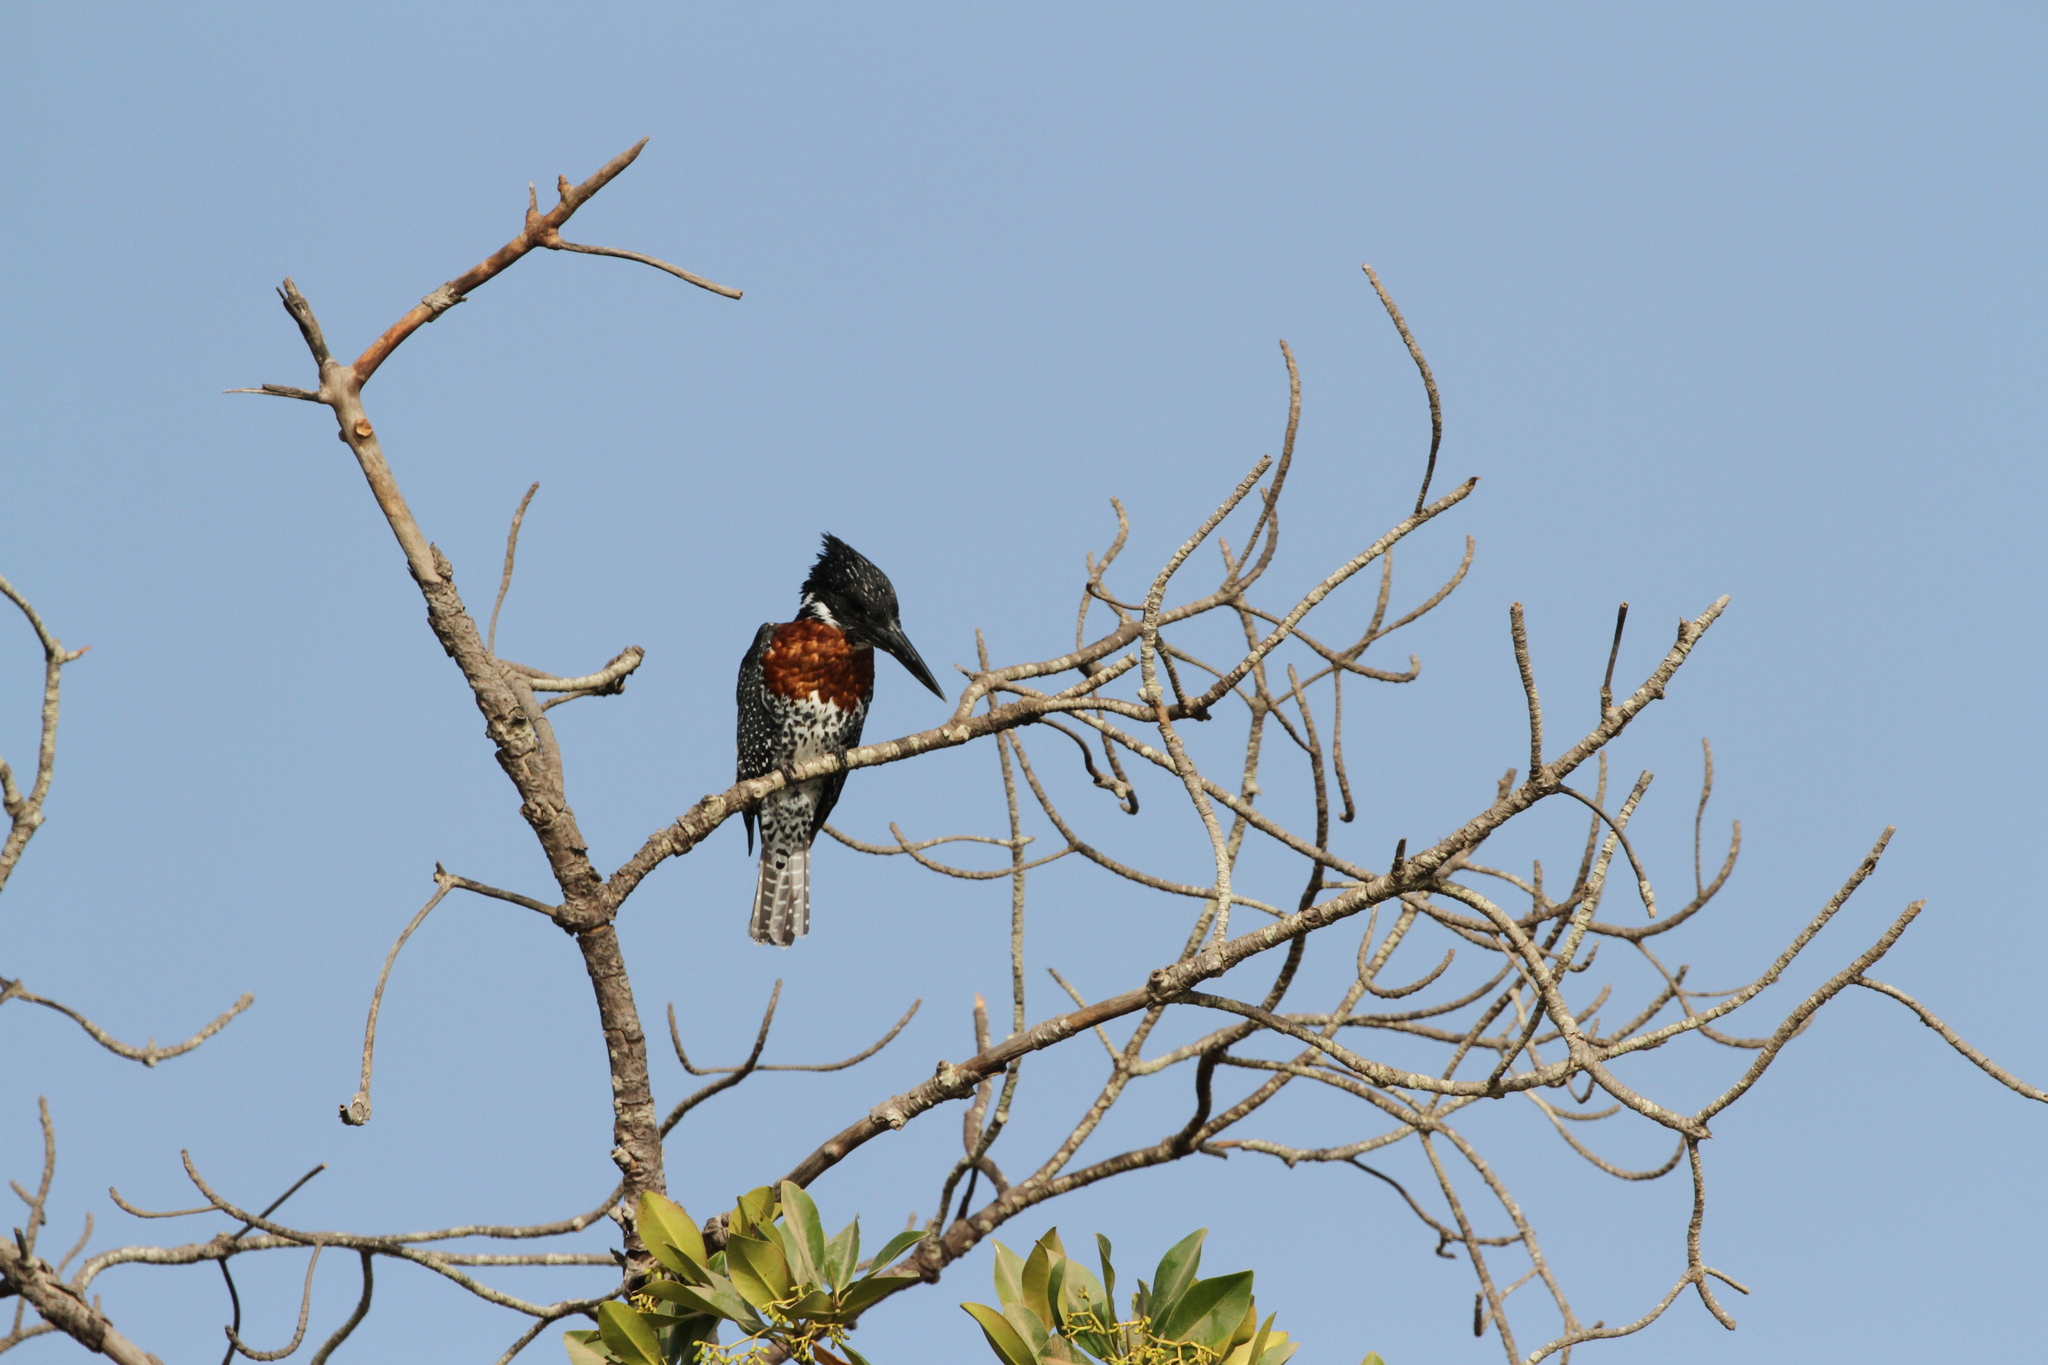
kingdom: Animalia
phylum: Chordata
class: Aves
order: Coraciiformes
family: Alcedinidae
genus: Megaceryle
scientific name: Megaceryle maxima
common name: Giant kingfisher
